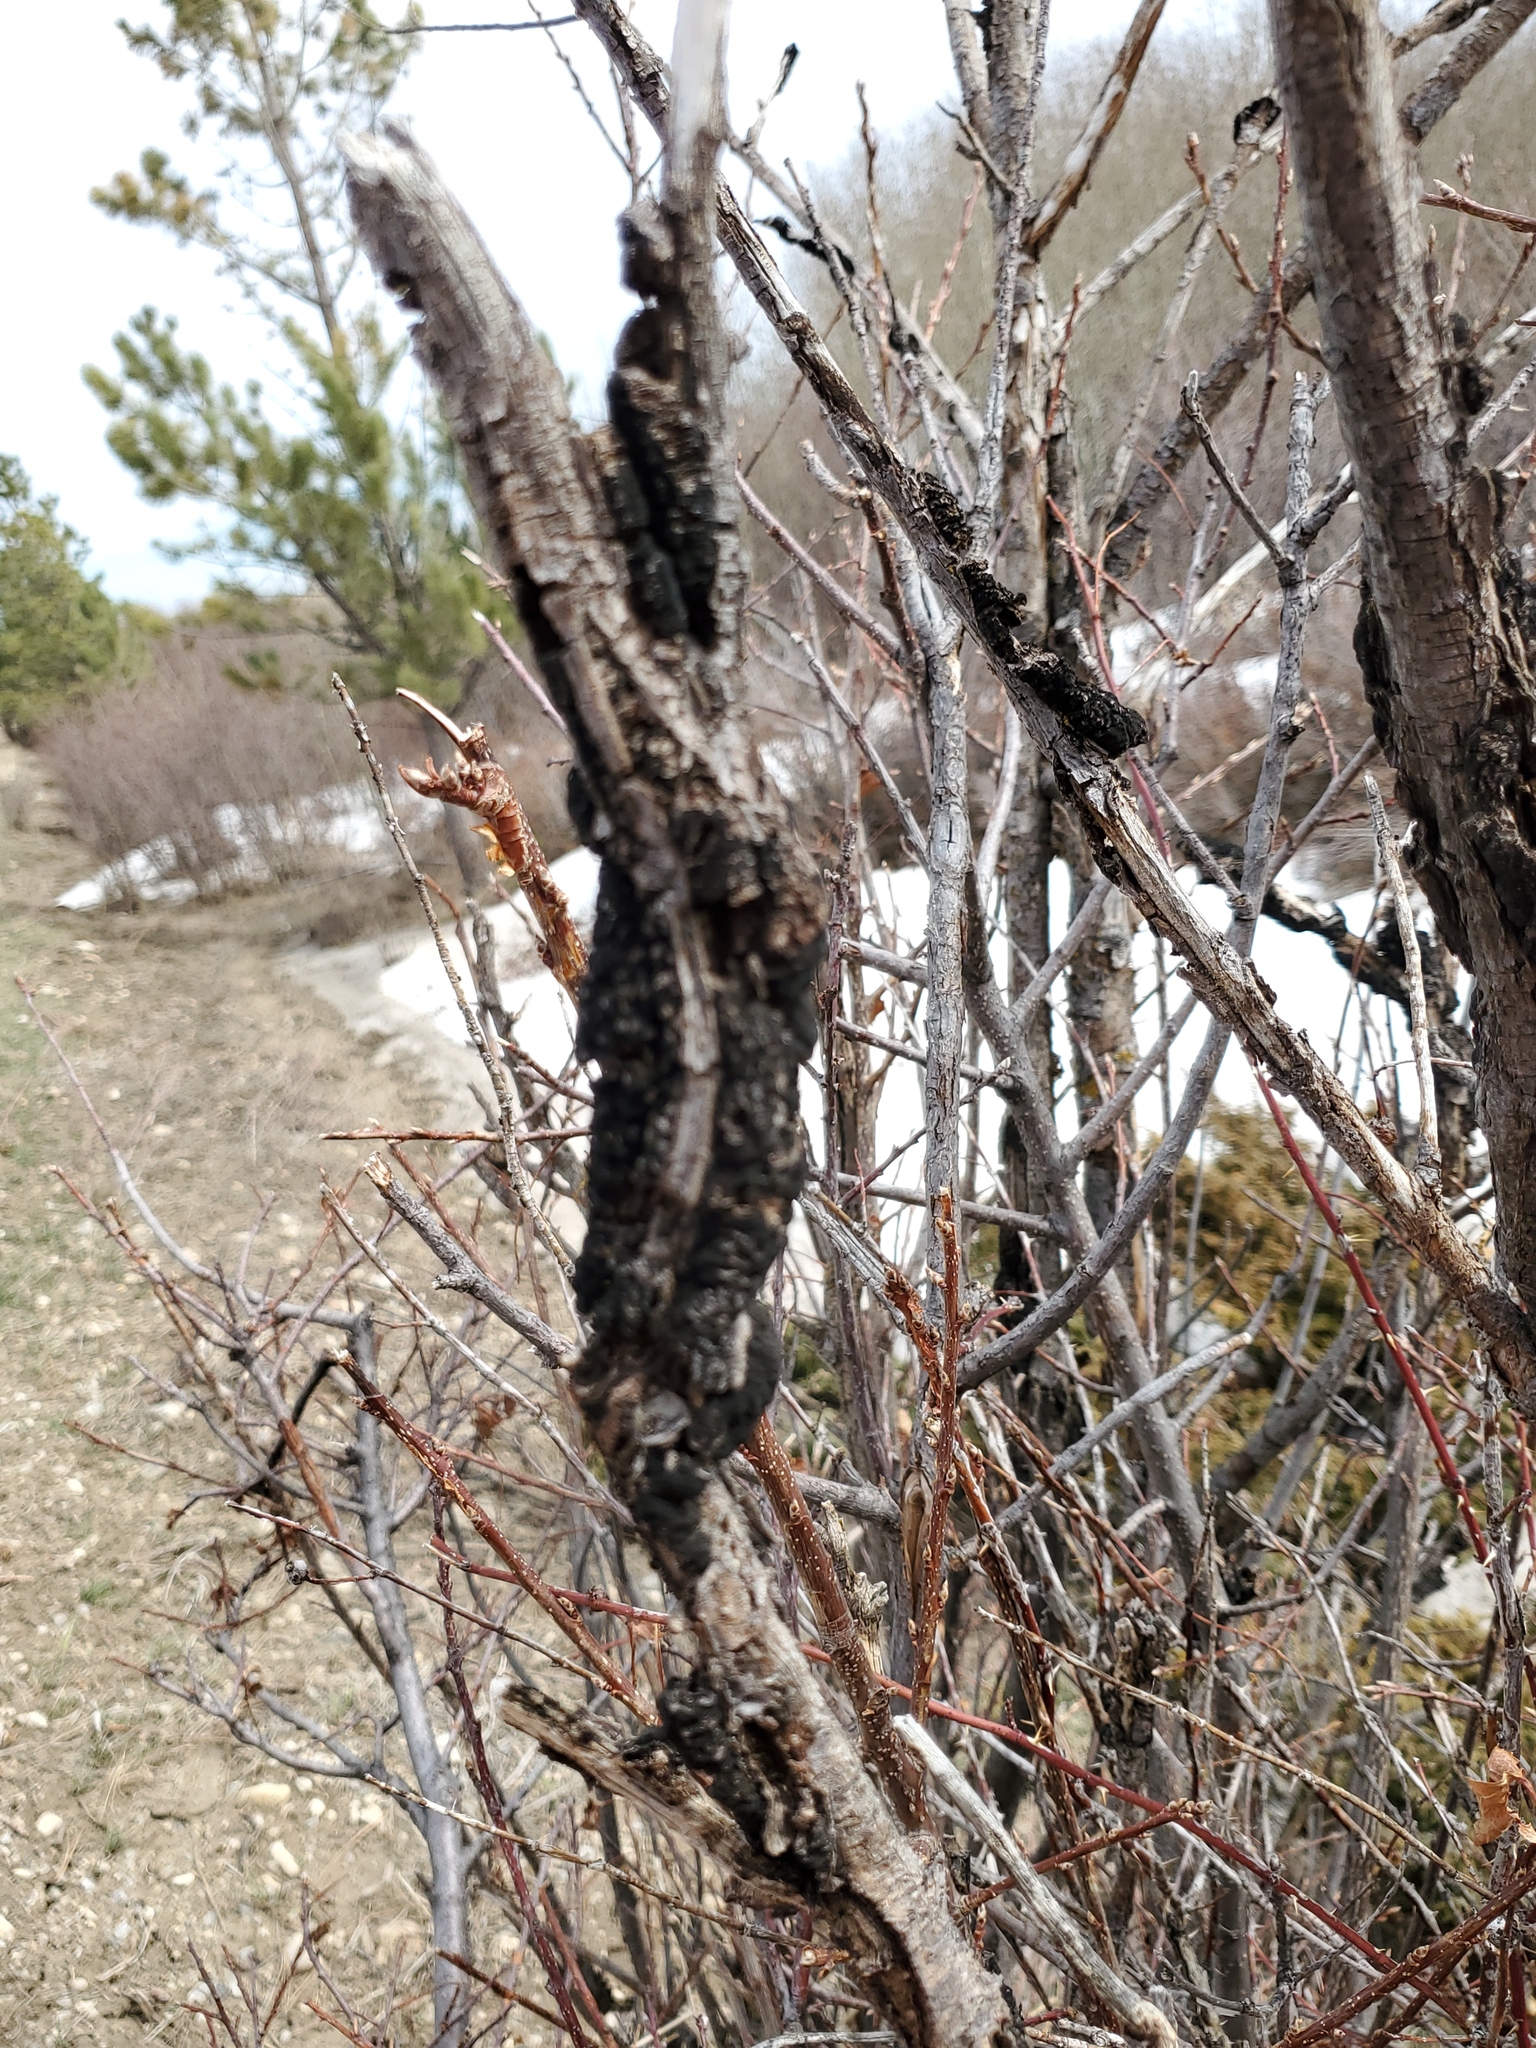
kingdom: Fungi
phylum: Ascomycota
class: Dothideomycetes
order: Venturiales
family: Venturiaceae
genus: Apiosporina
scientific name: Apiosporina morbosa
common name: Black knot
